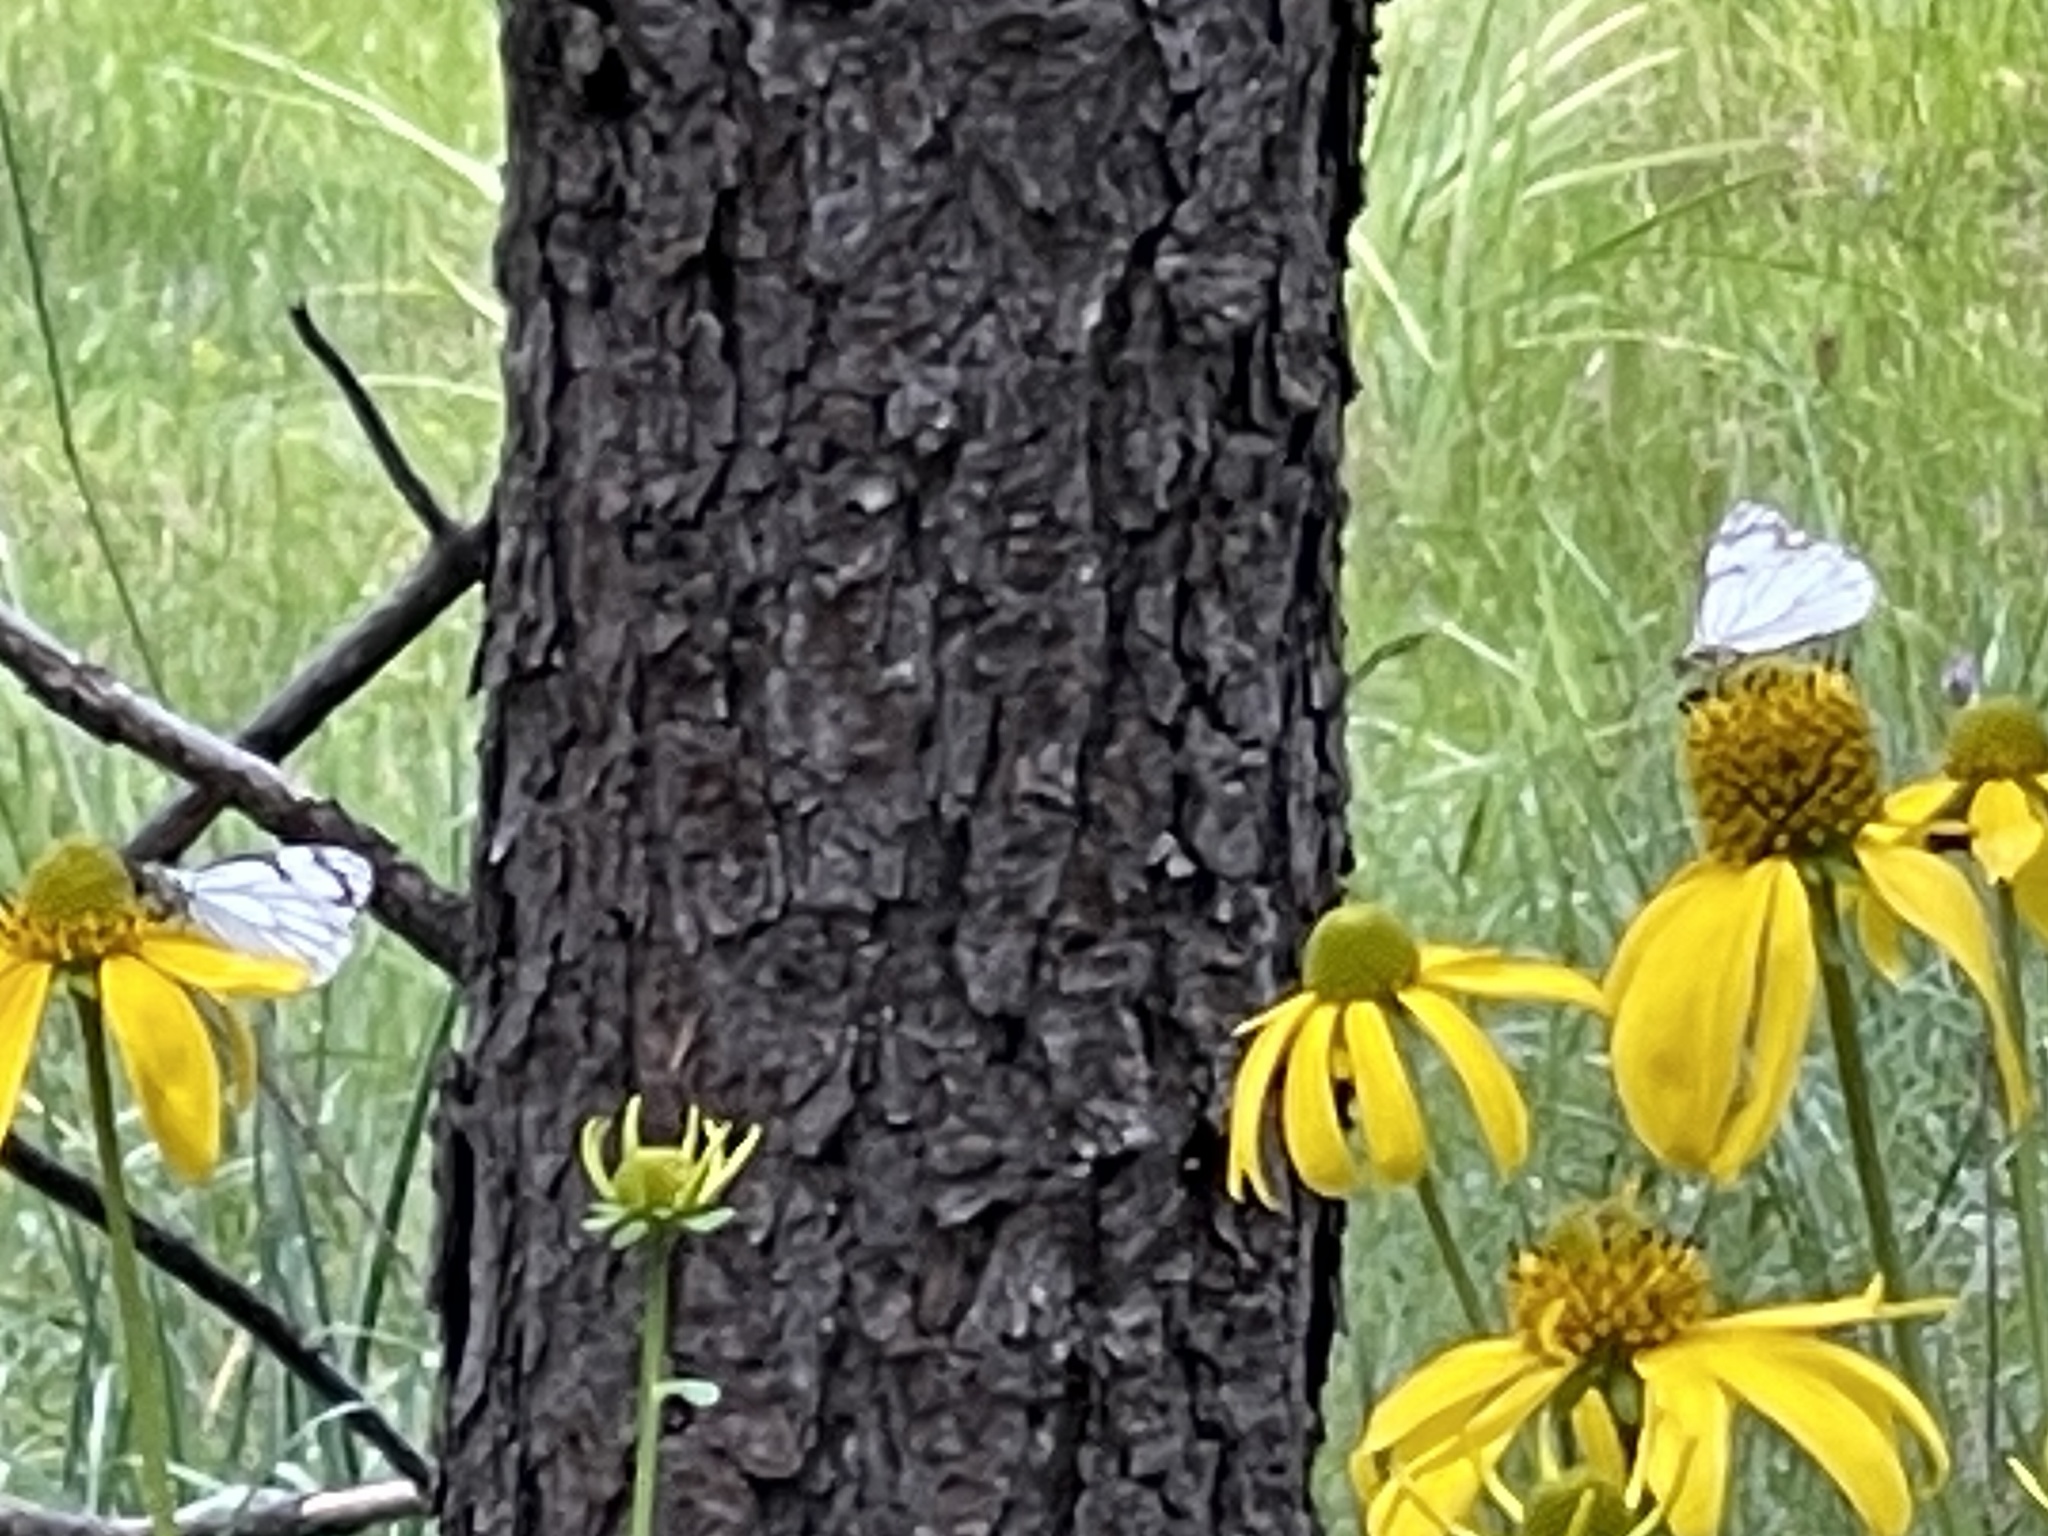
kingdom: Animalia
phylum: Arthropoda
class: Insecta
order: Lepidoptera
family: Pieridae
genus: Neophasia
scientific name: Neophasia menapia
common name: Pine white
